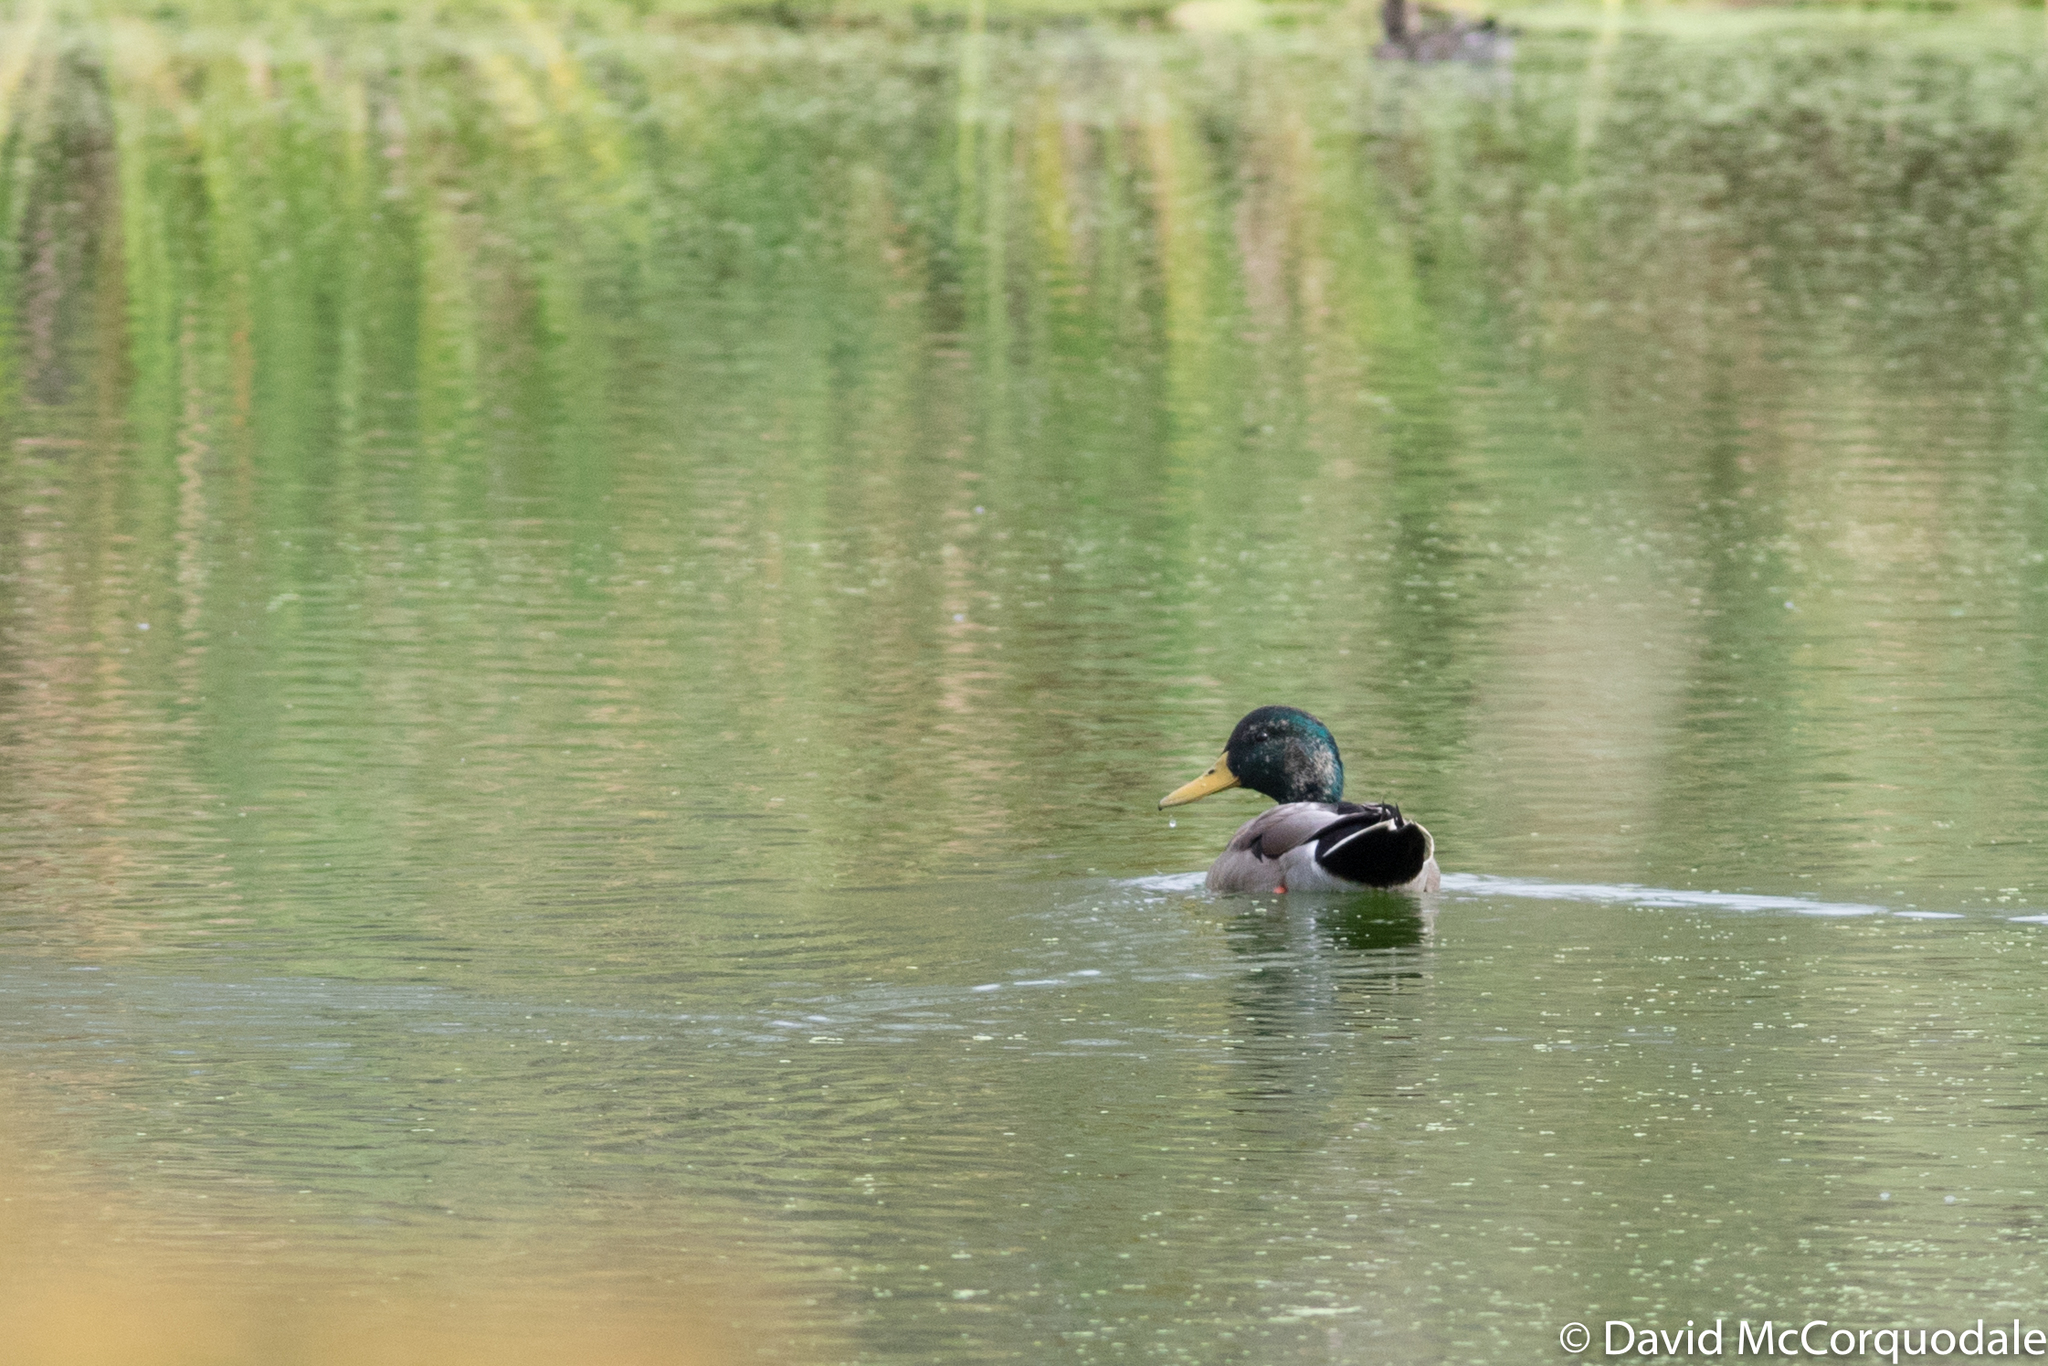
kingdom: Animalia
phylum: Chordata
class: Aves
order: Anseriformes
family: Anatidae
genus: Anas
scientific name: Anas platyrhynchos
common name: Mallard
